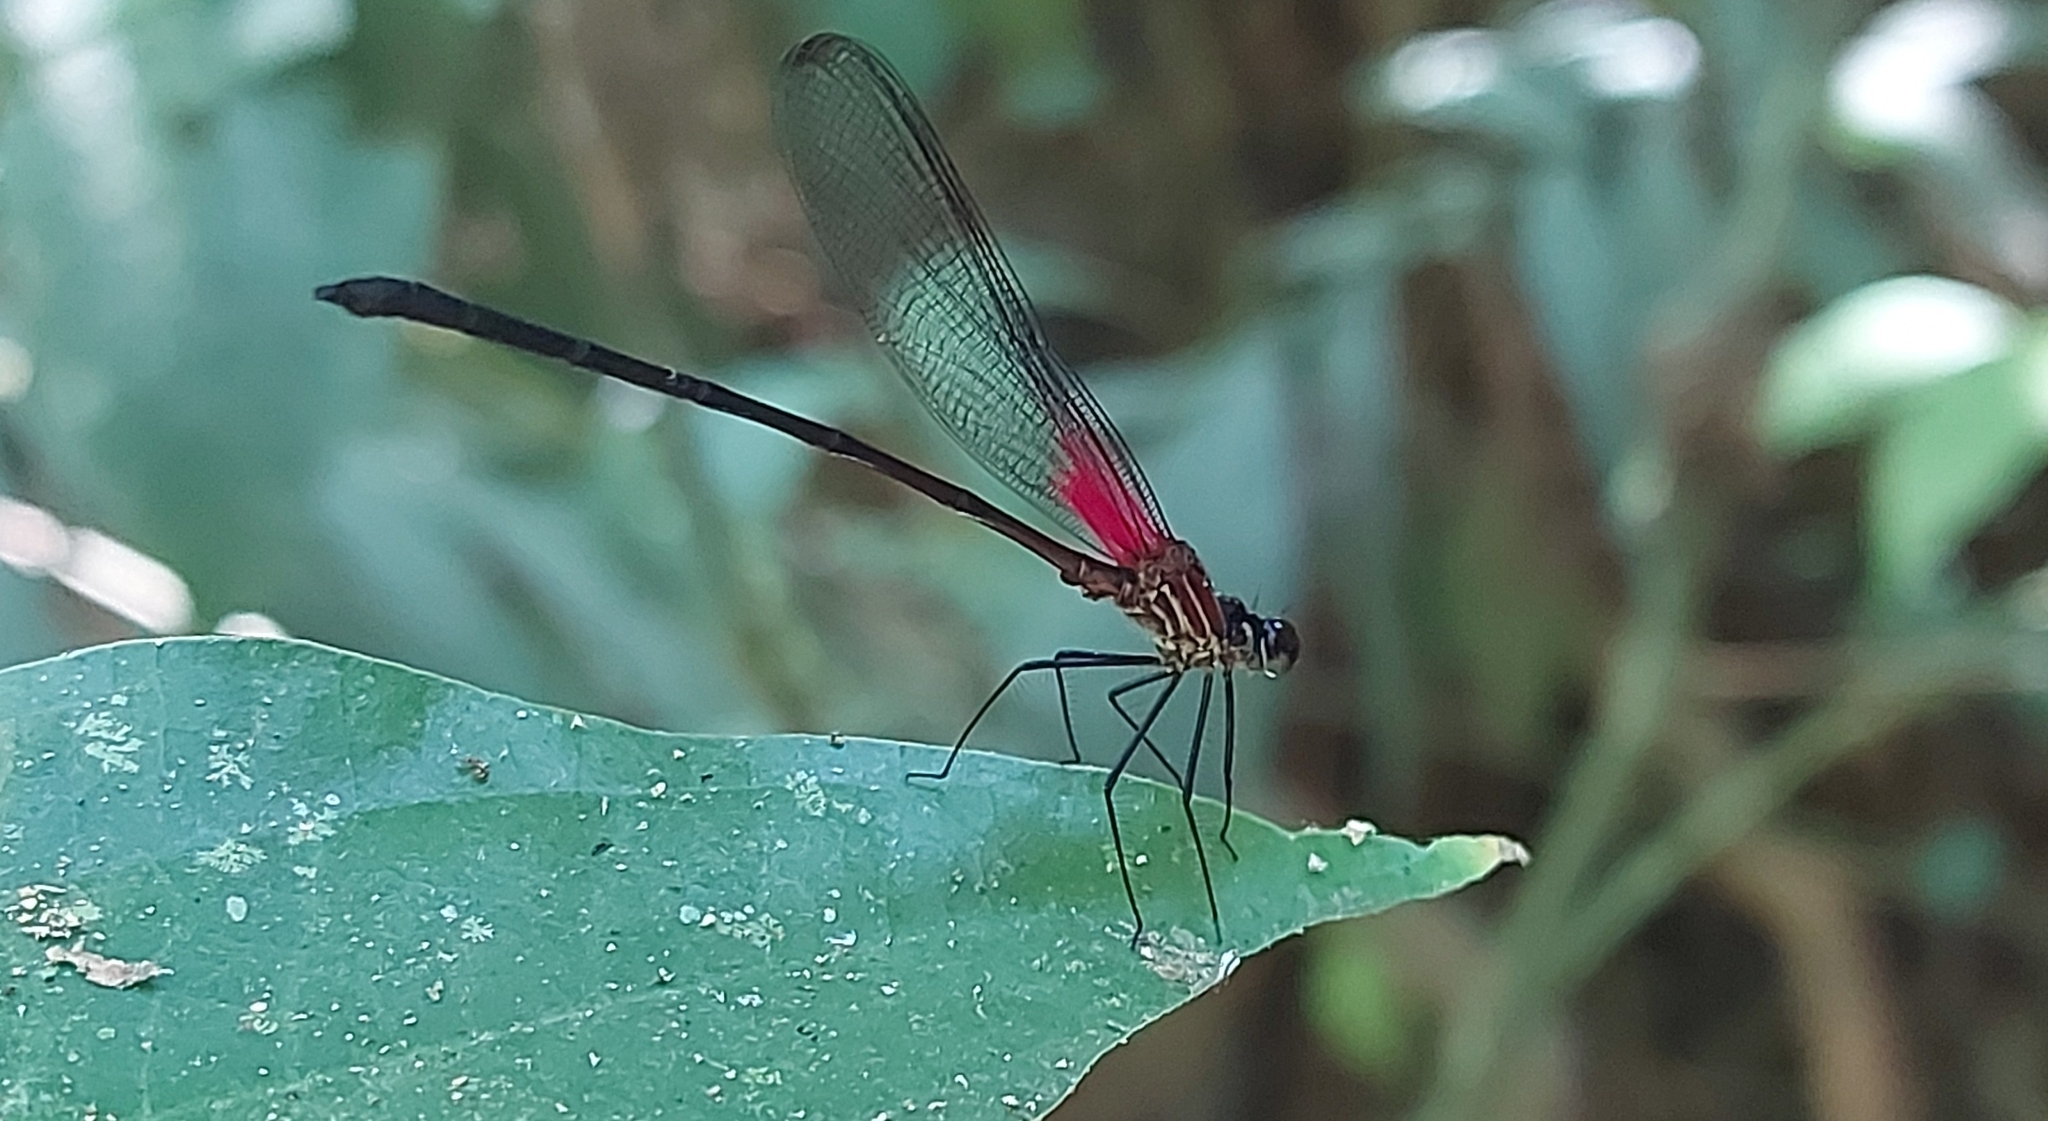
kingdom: Animalia
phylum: Arthropoda
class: Insecta
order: Odonata
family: Calopterygidae
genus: Hetaerina
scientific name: Hetaerina fuscoguttata
